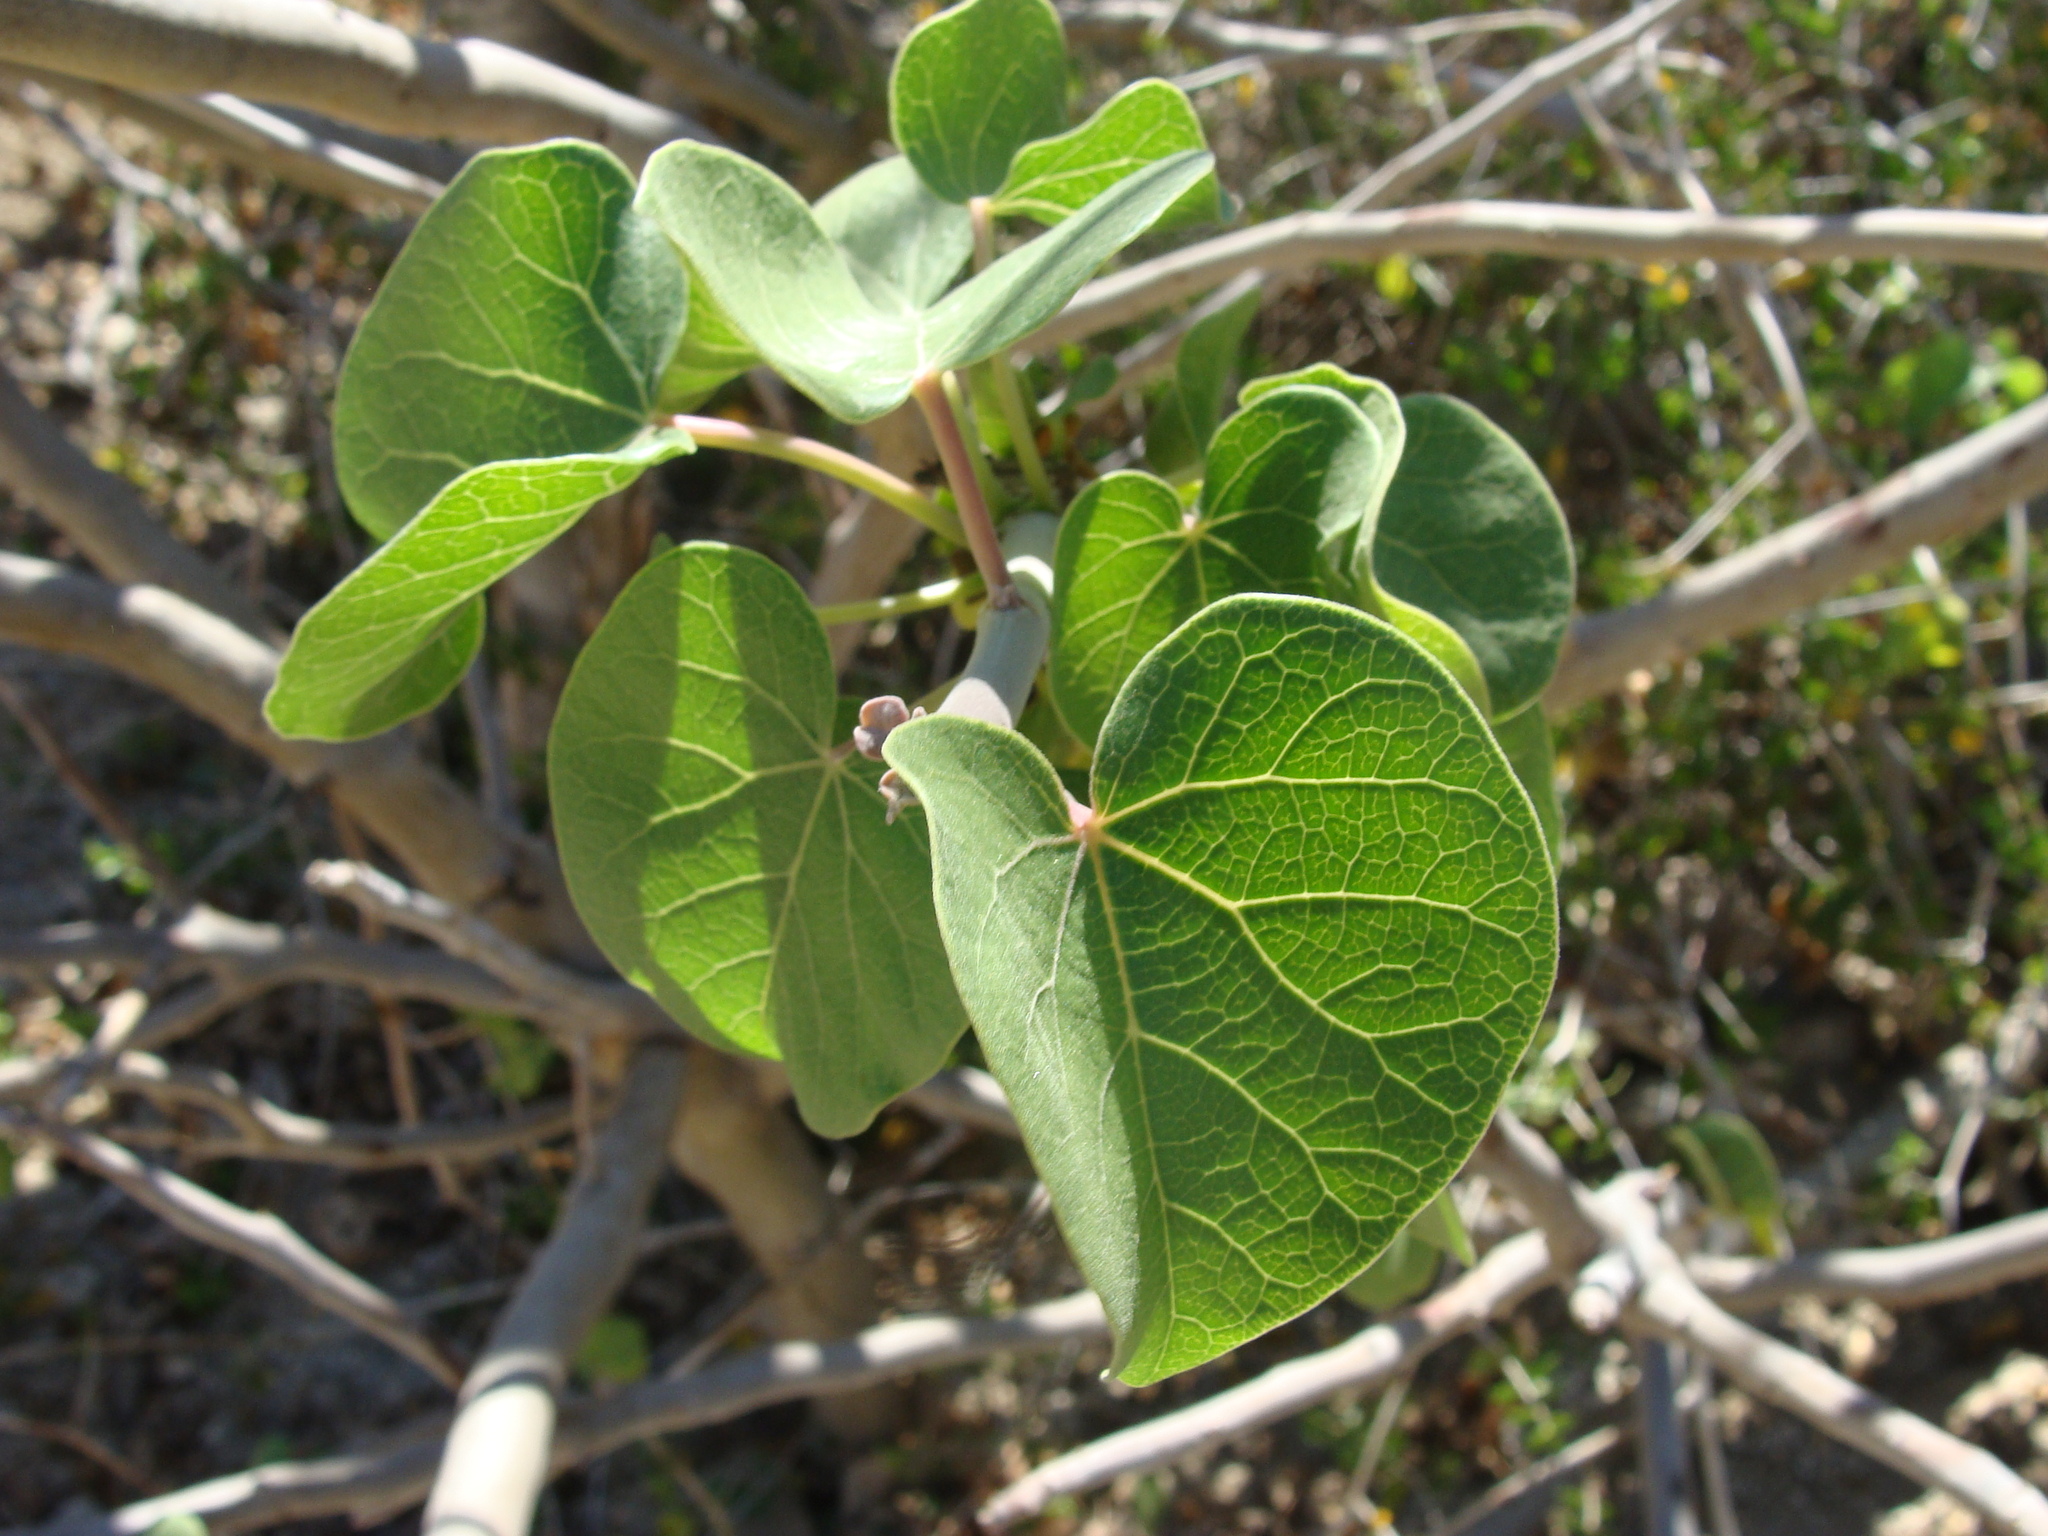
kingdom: Plantae
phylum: Tracheophyta
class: Magnoliopsida
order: Malpighiales
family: Euphorbiaceae
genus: Jatropha
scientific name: Jatropha cinerea
